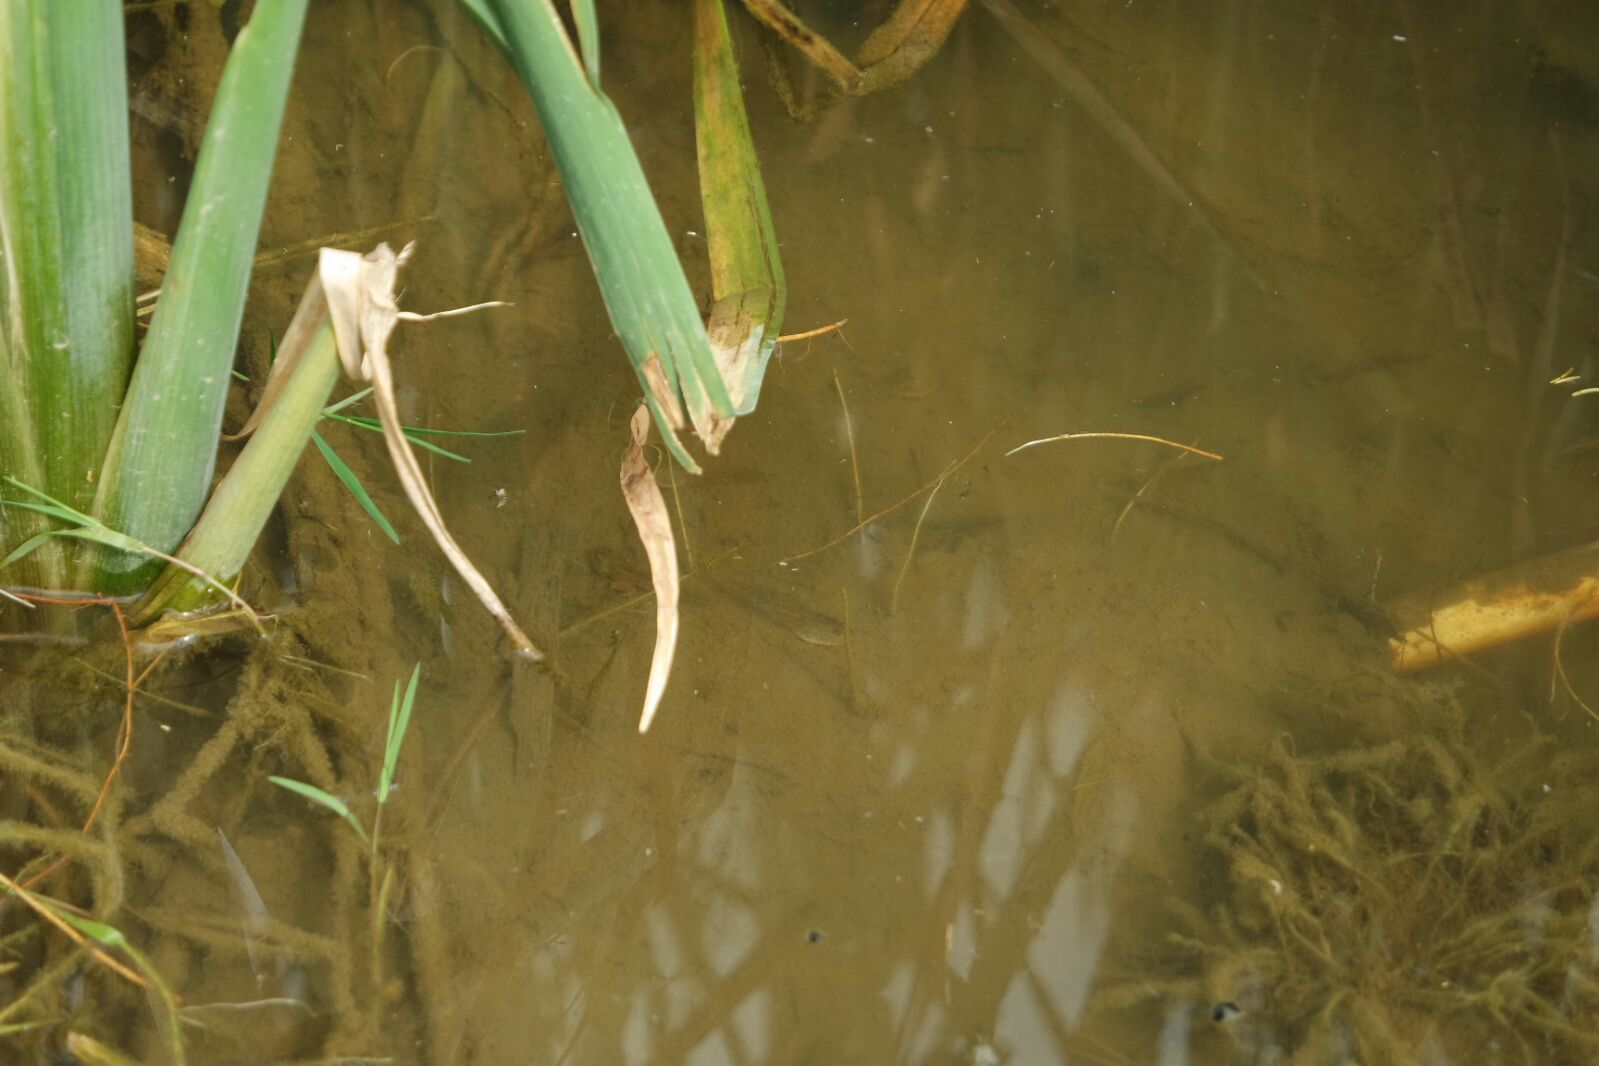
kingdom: Animalia
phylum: Chordata
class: Amphibia
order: Anura
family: Ranidae
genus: Rana
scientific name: Rana temporaria
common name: Common frog
